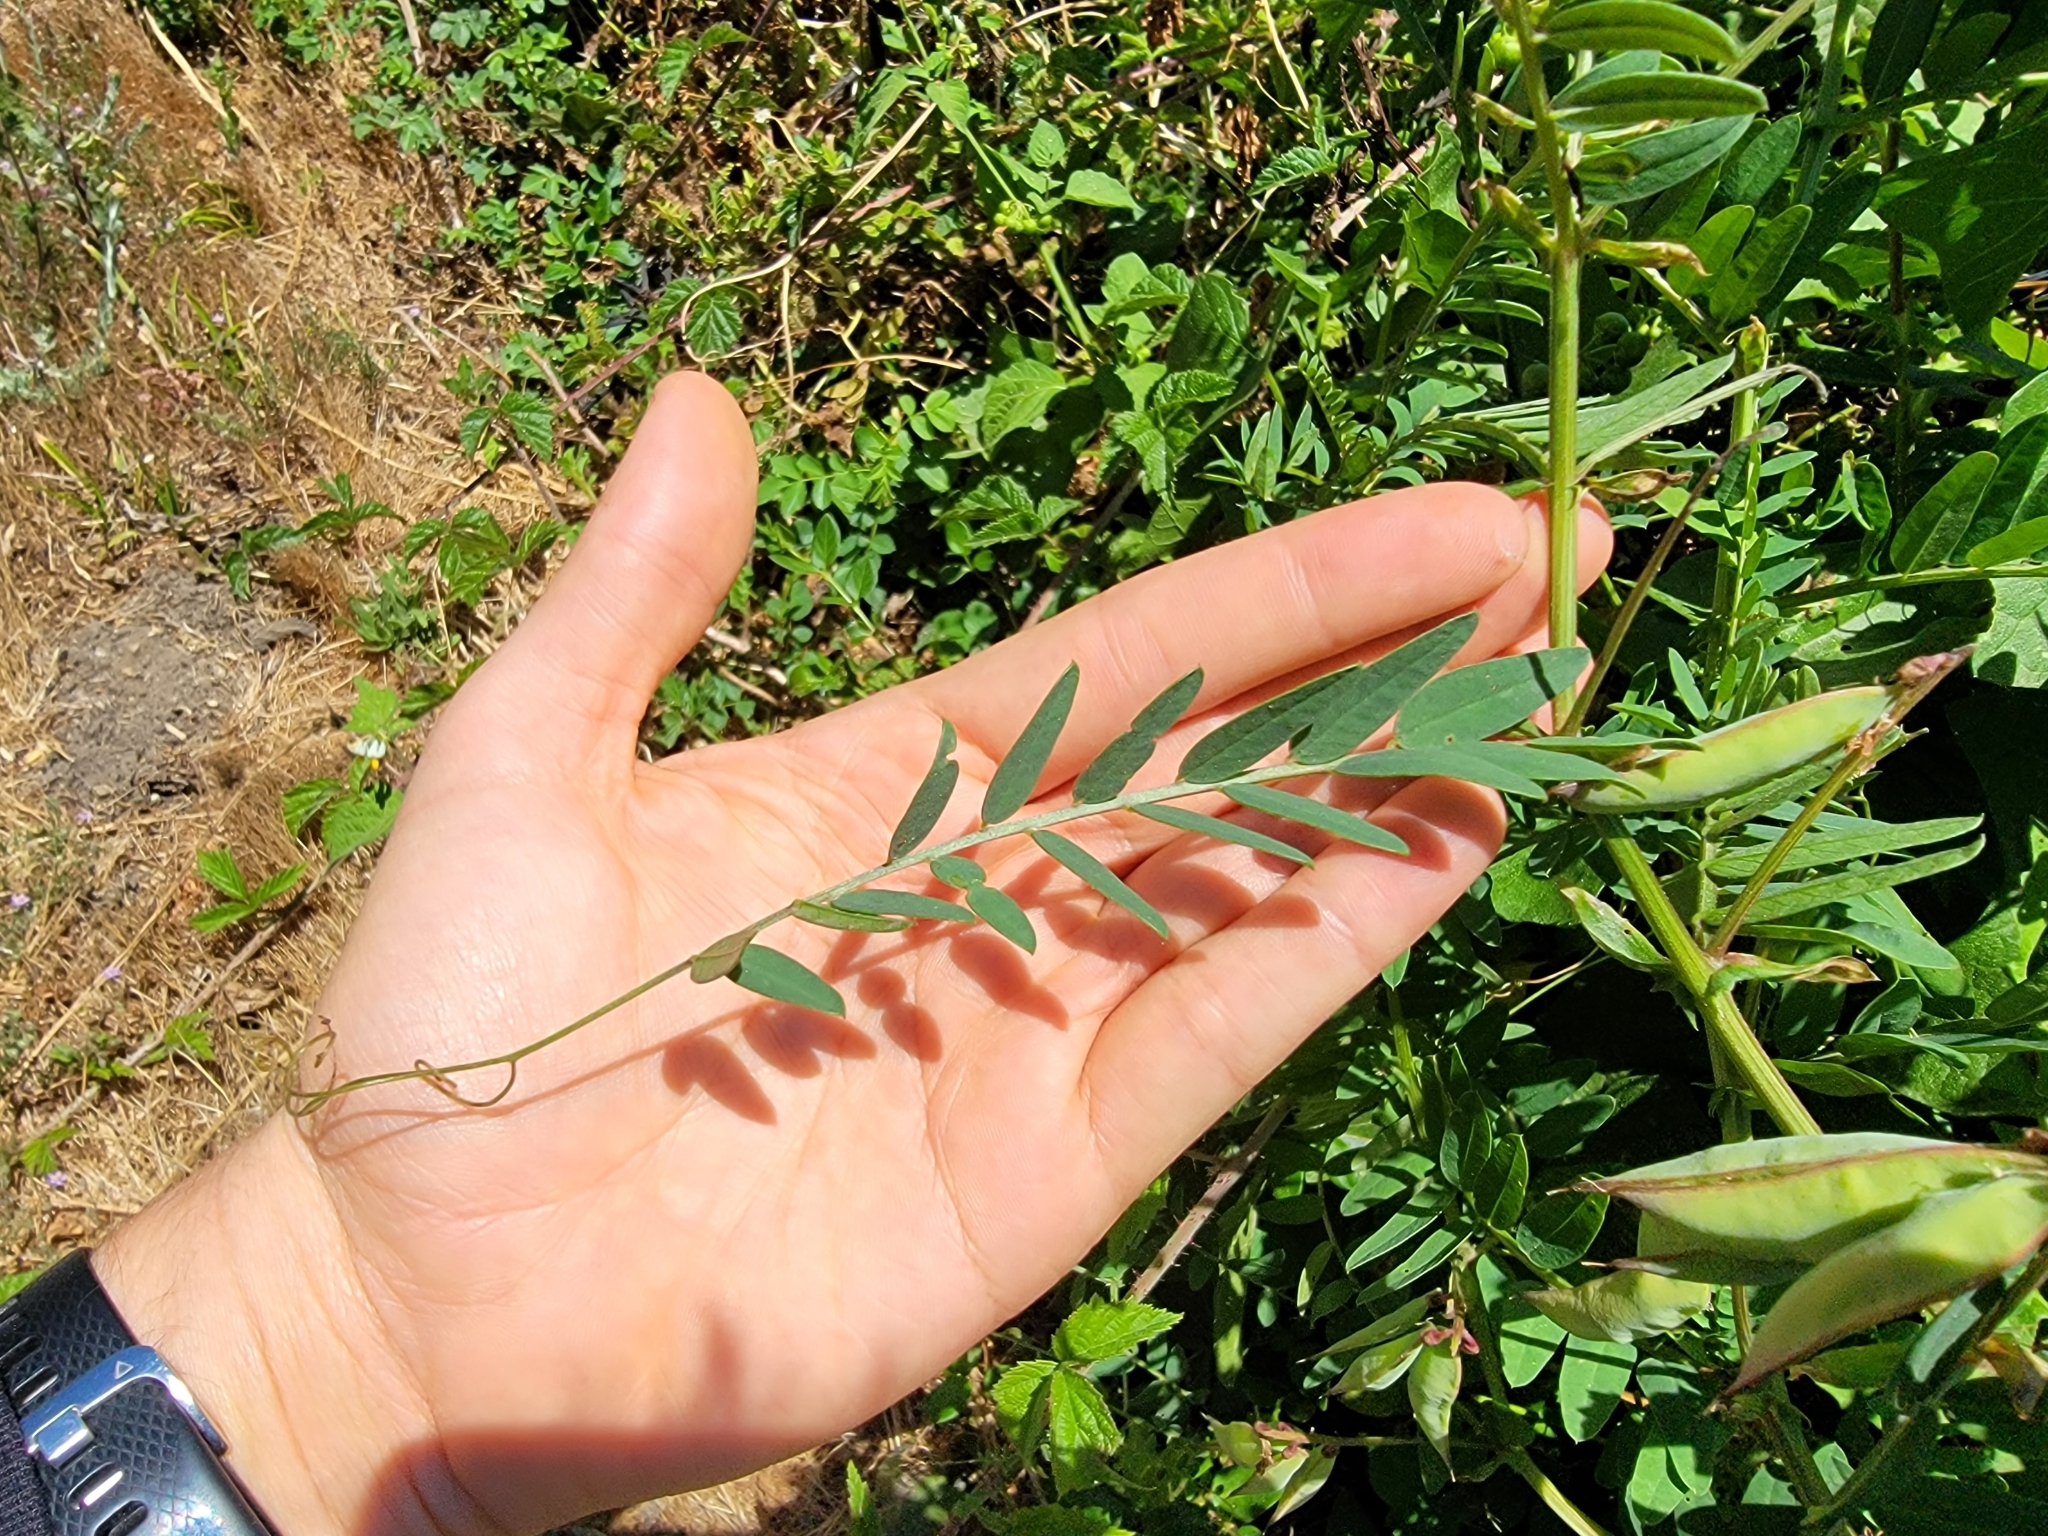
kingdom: Plantae
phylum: Tracheophyta
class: Magnoliopsida
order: Fabales
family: Fabaceae
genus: Vicia
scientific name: Vicia
